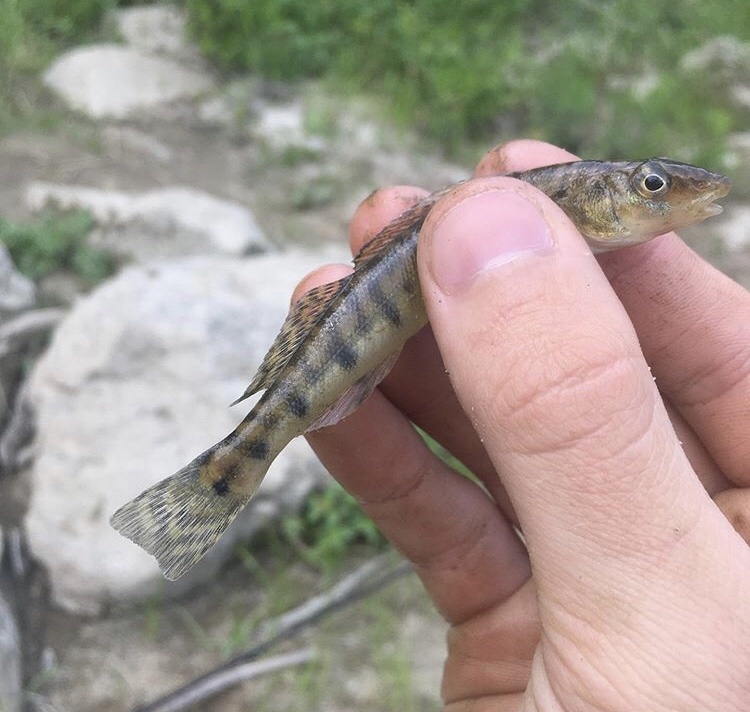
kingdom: Animalia
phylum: Chordata
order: Perciformes
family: Percidae
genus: Percina
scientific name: Percina caprodes
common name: Logperch
